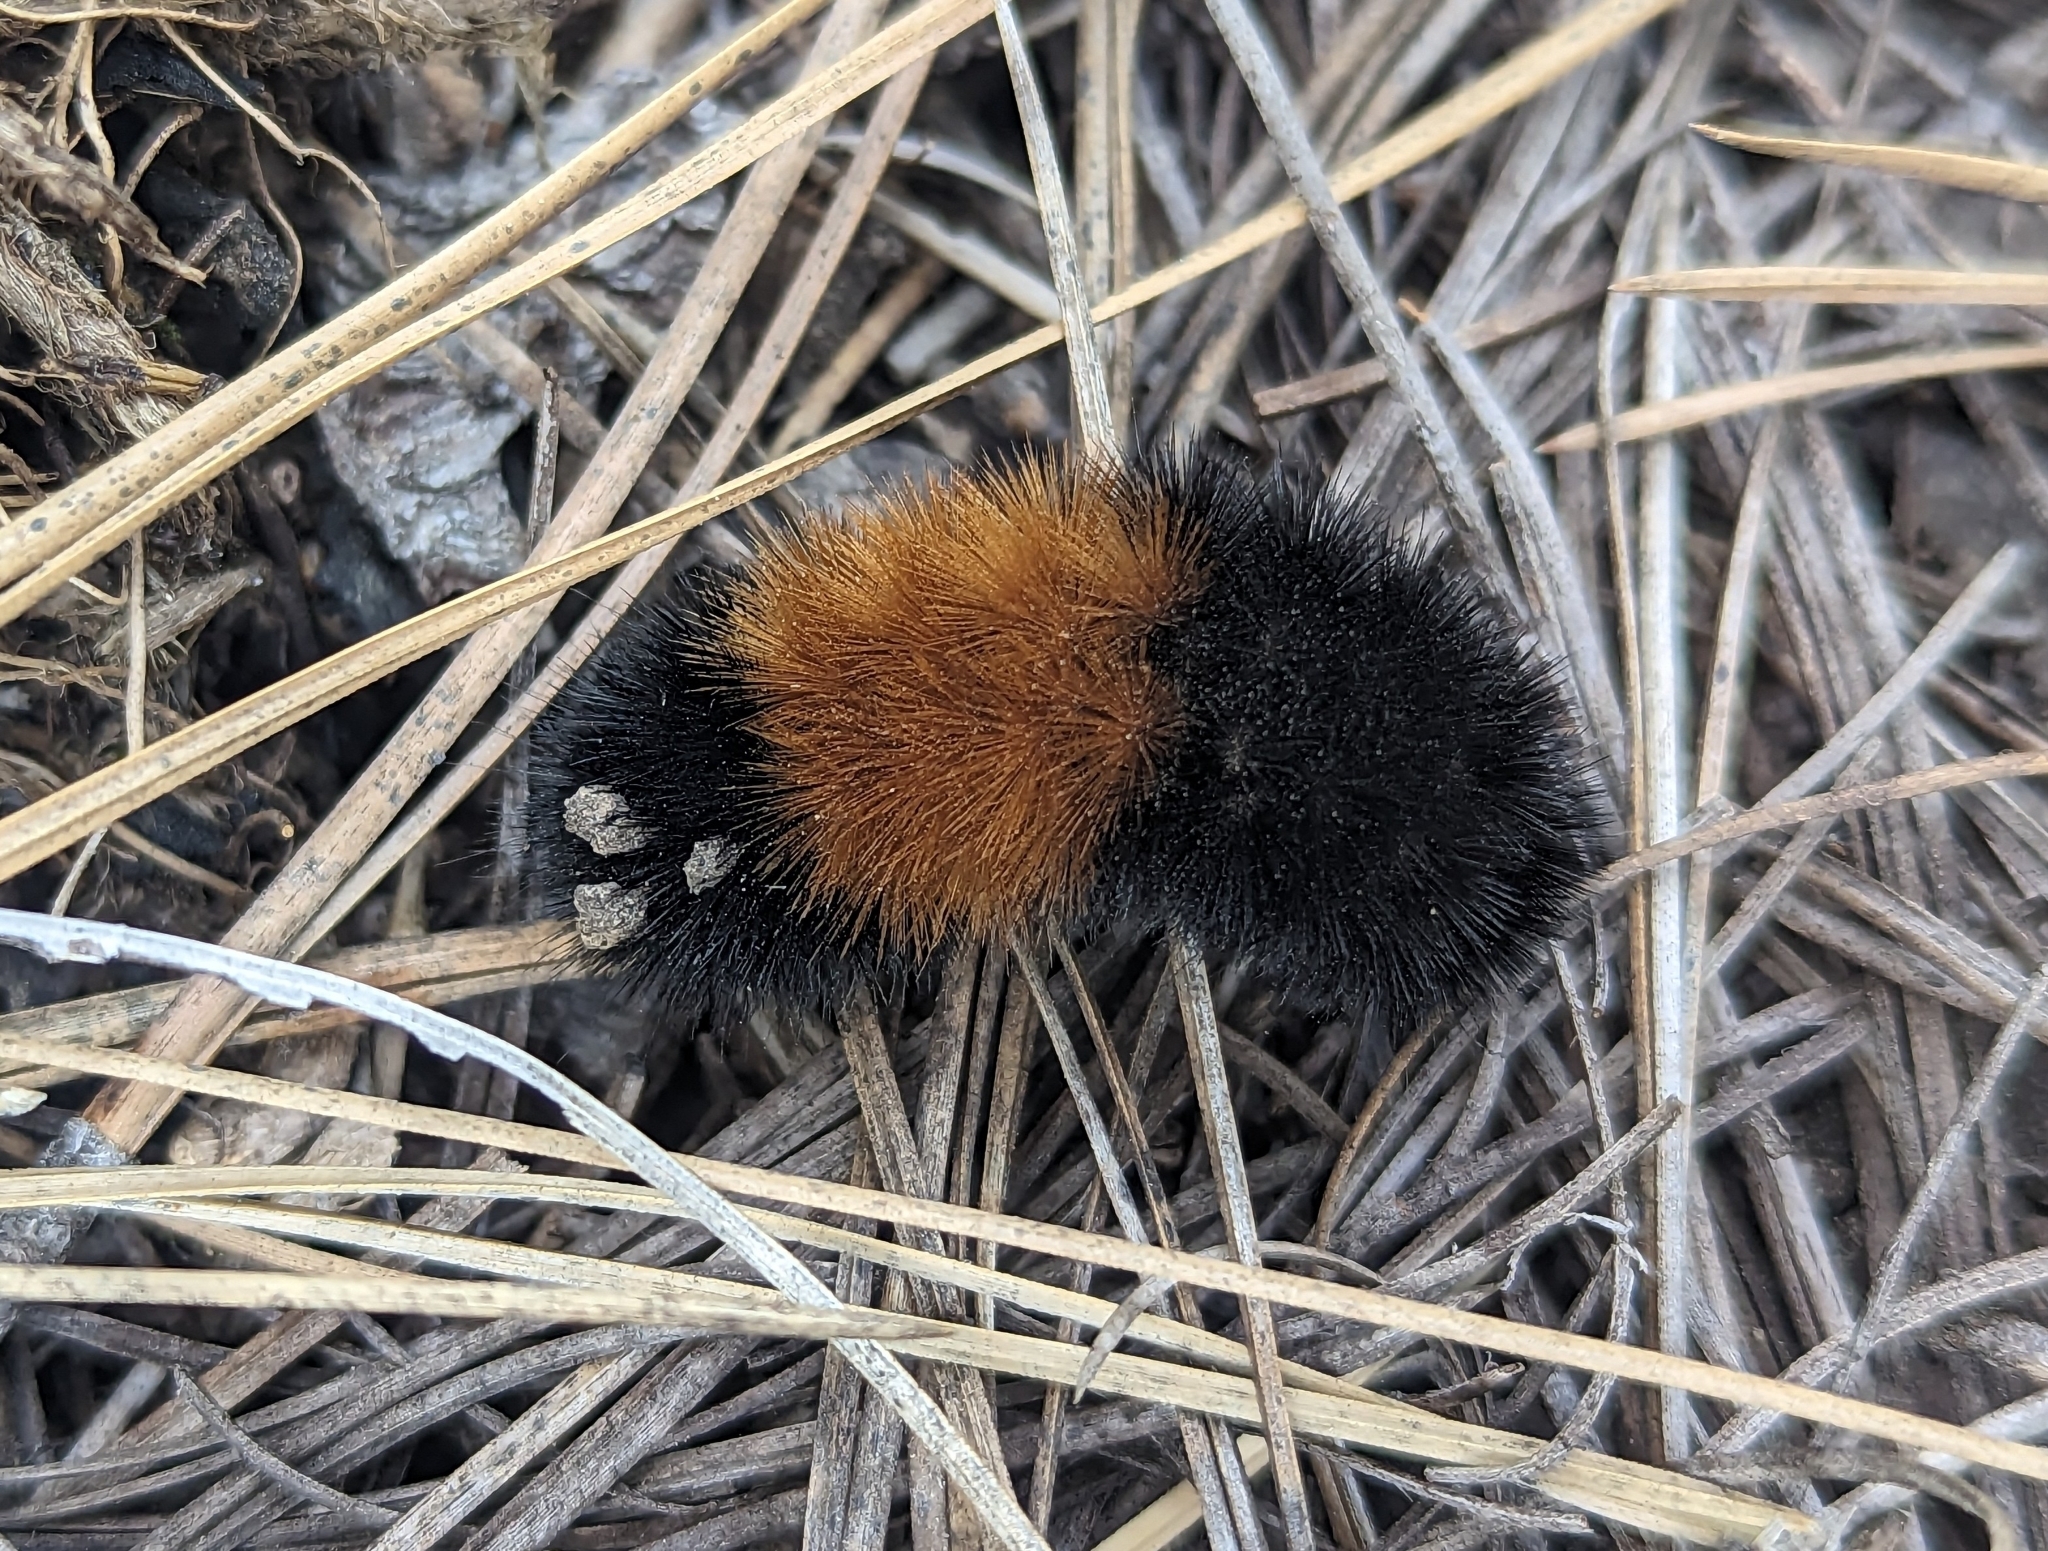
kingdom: Animalia
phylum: Arthropoda
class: Insecta
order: Lepidoptera
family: Erebidae
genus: Pyrrharctia
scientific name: Pyrrharctia isabella
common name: Isabella tiger moth
